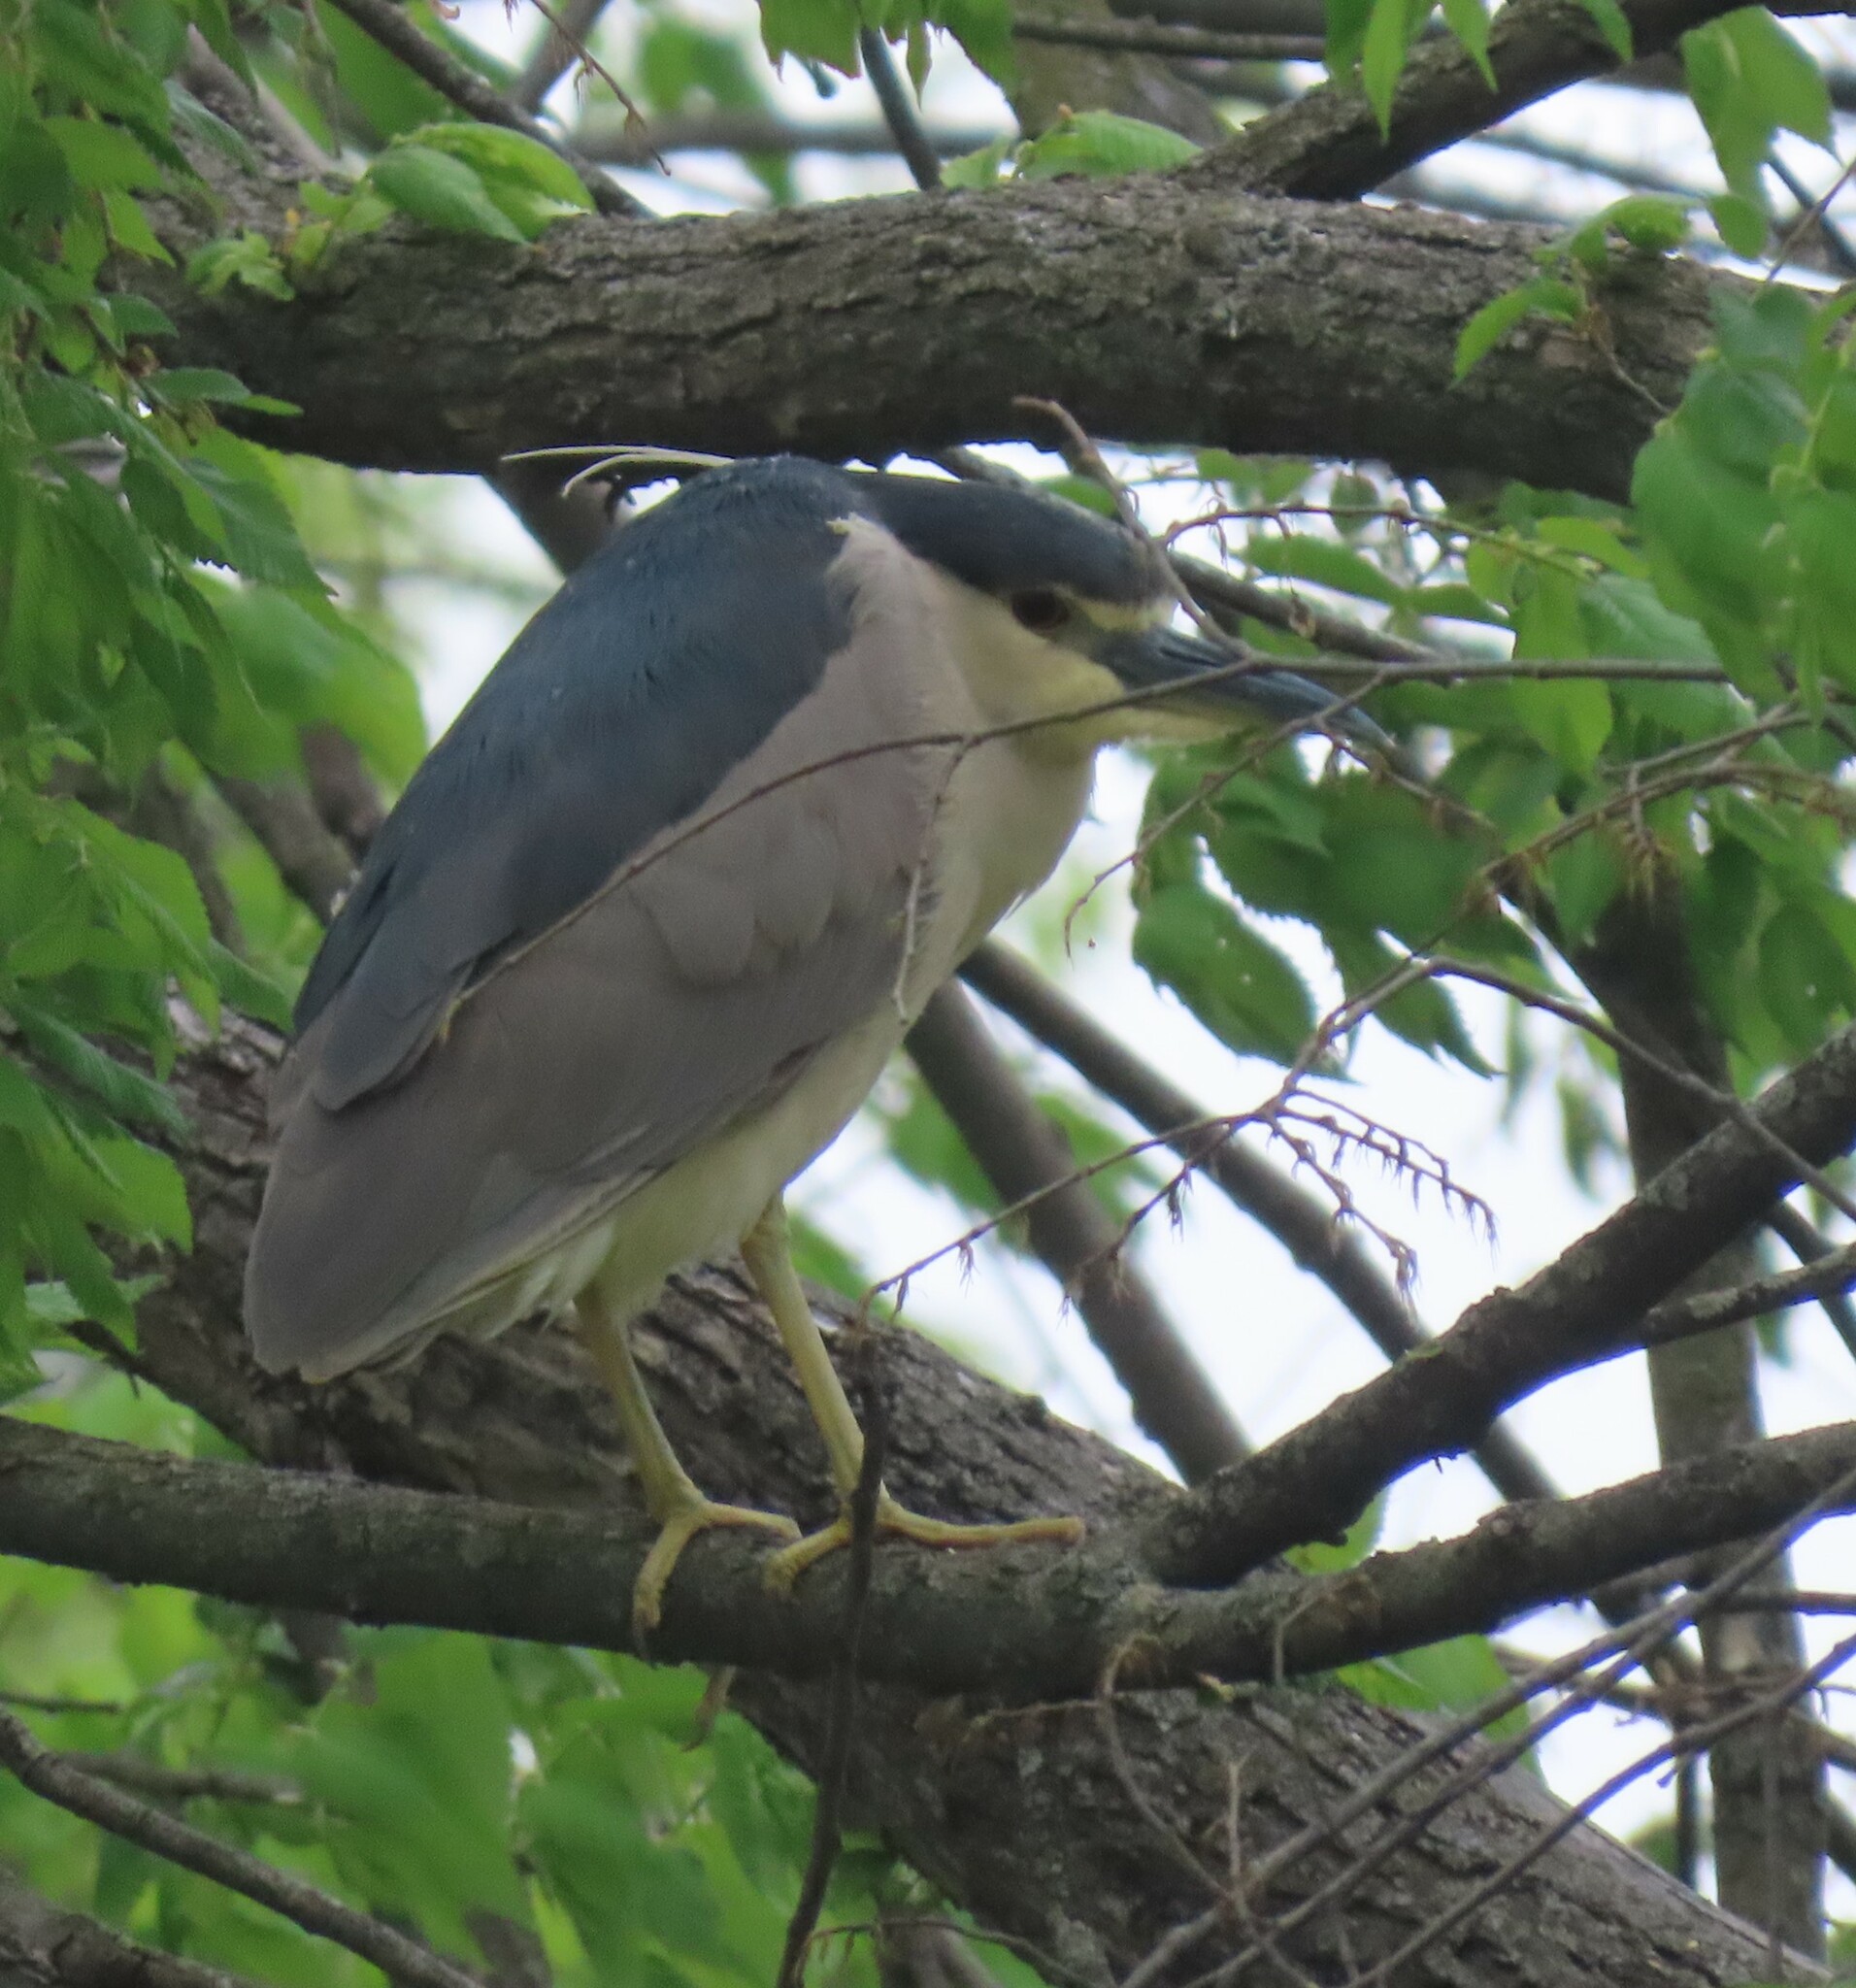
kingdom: Animalia
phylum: Chordata
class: Aves
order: Pelecaniformes
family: Ardeidae
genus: Nycticorax
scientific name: Nycticorax nycticorax
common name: Black-crowned night heron
